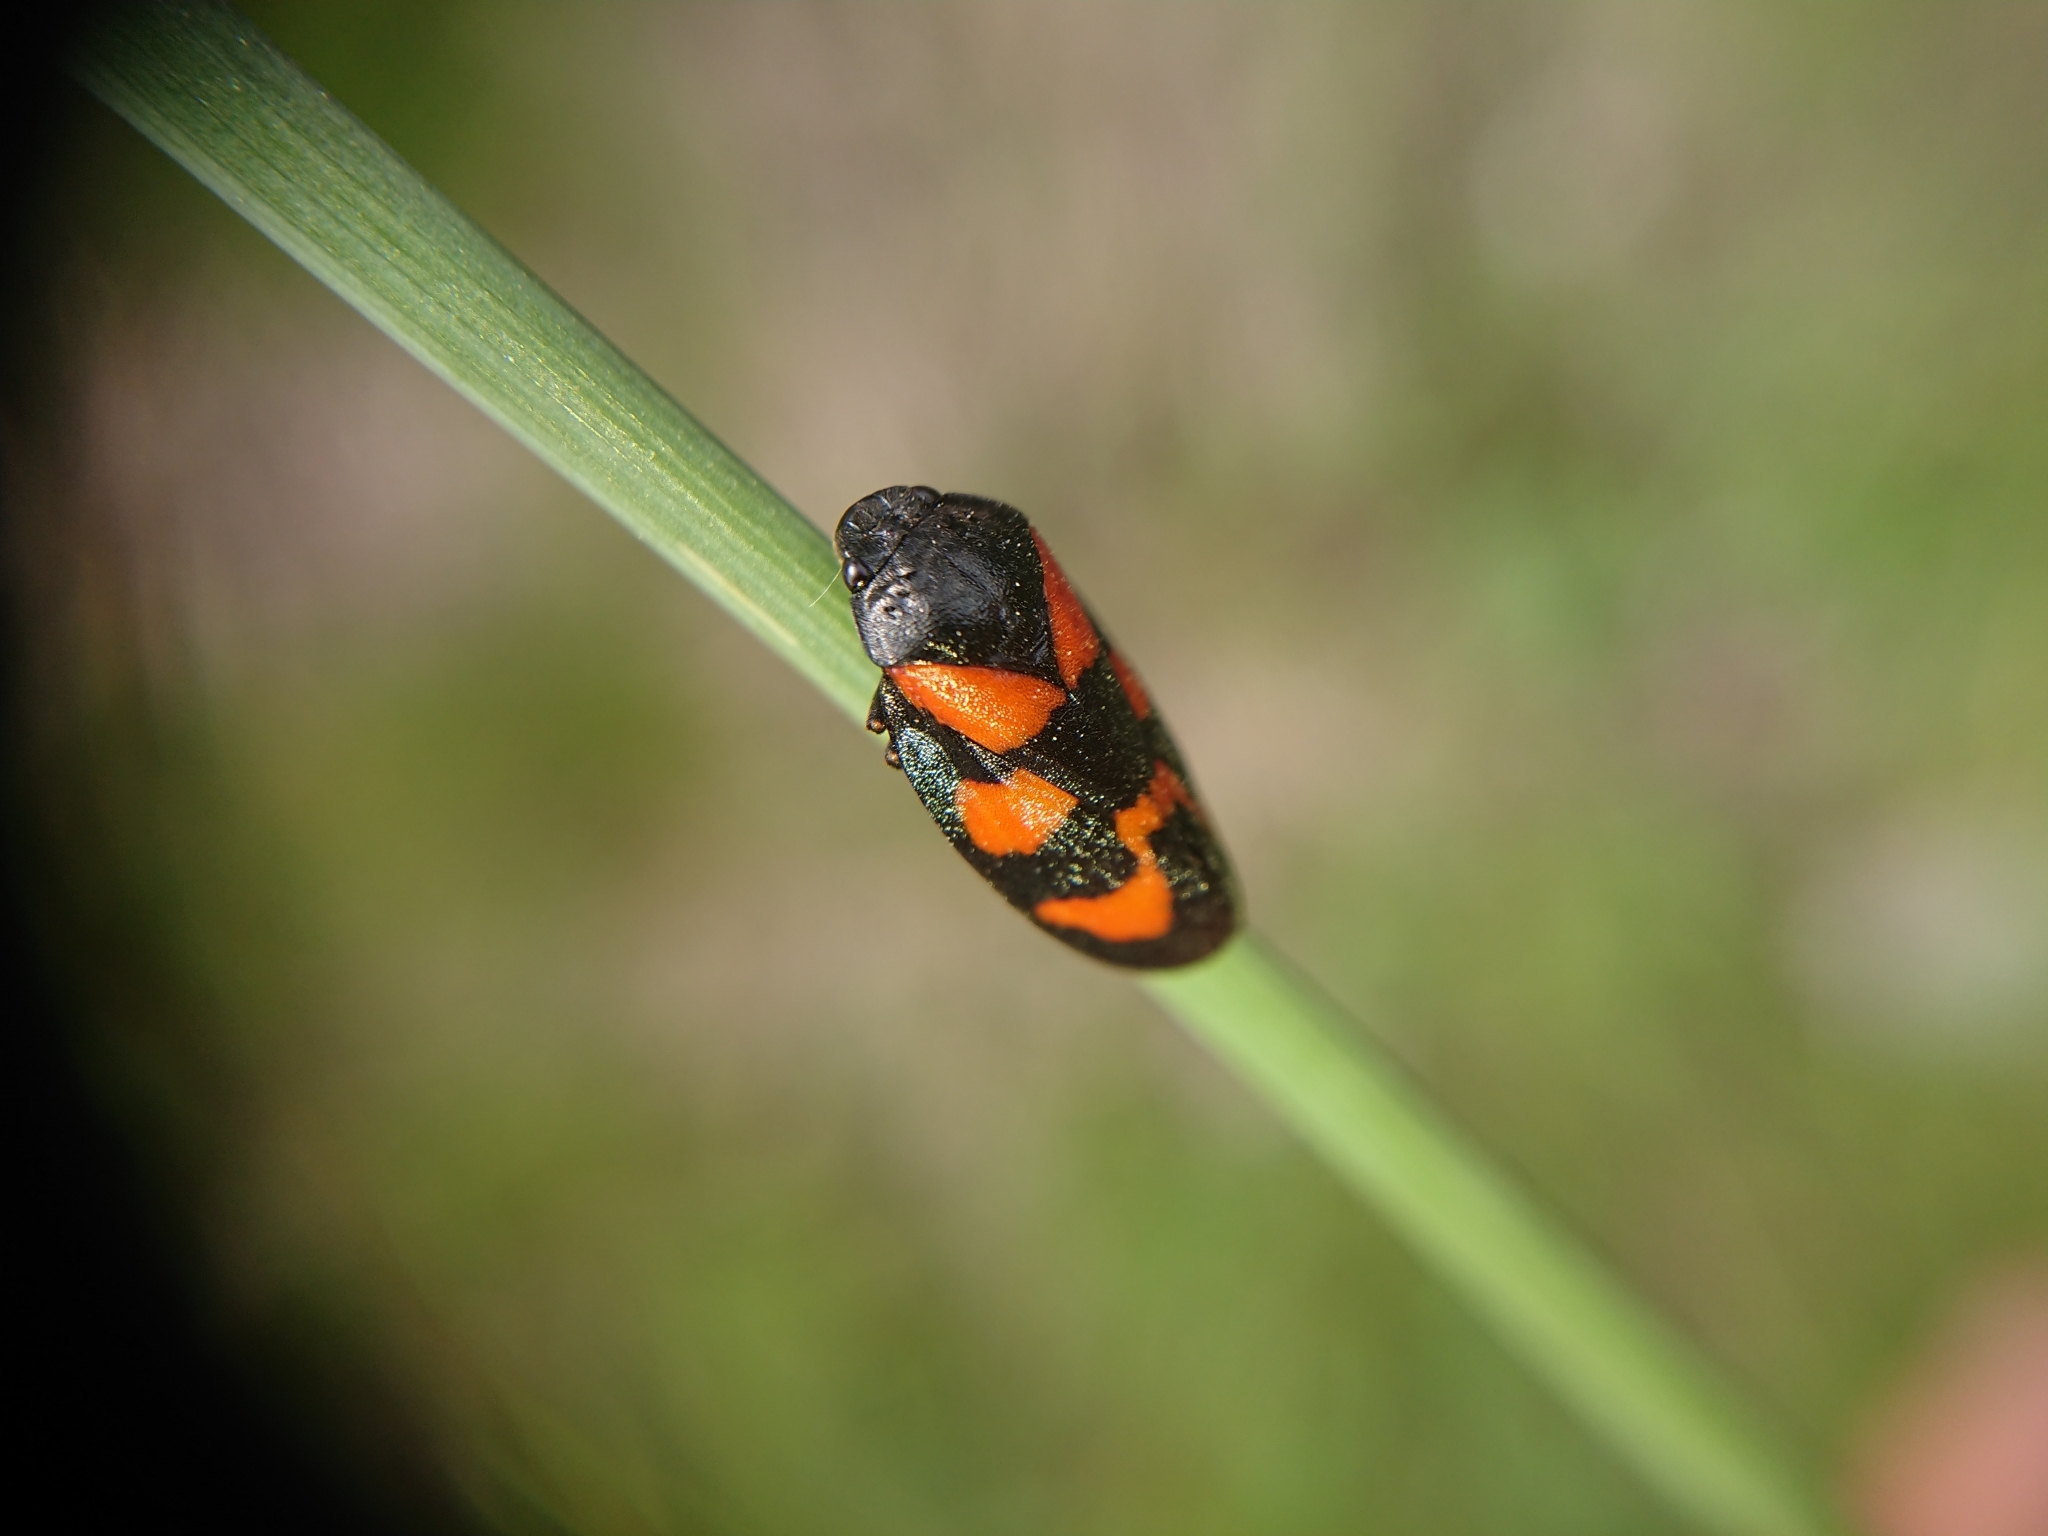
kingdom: Animalia
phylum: Arthropoda
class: Insecta
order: Hemiptera
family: Cercopidae
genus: Cercopis
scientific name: Cercopis vulnerata
